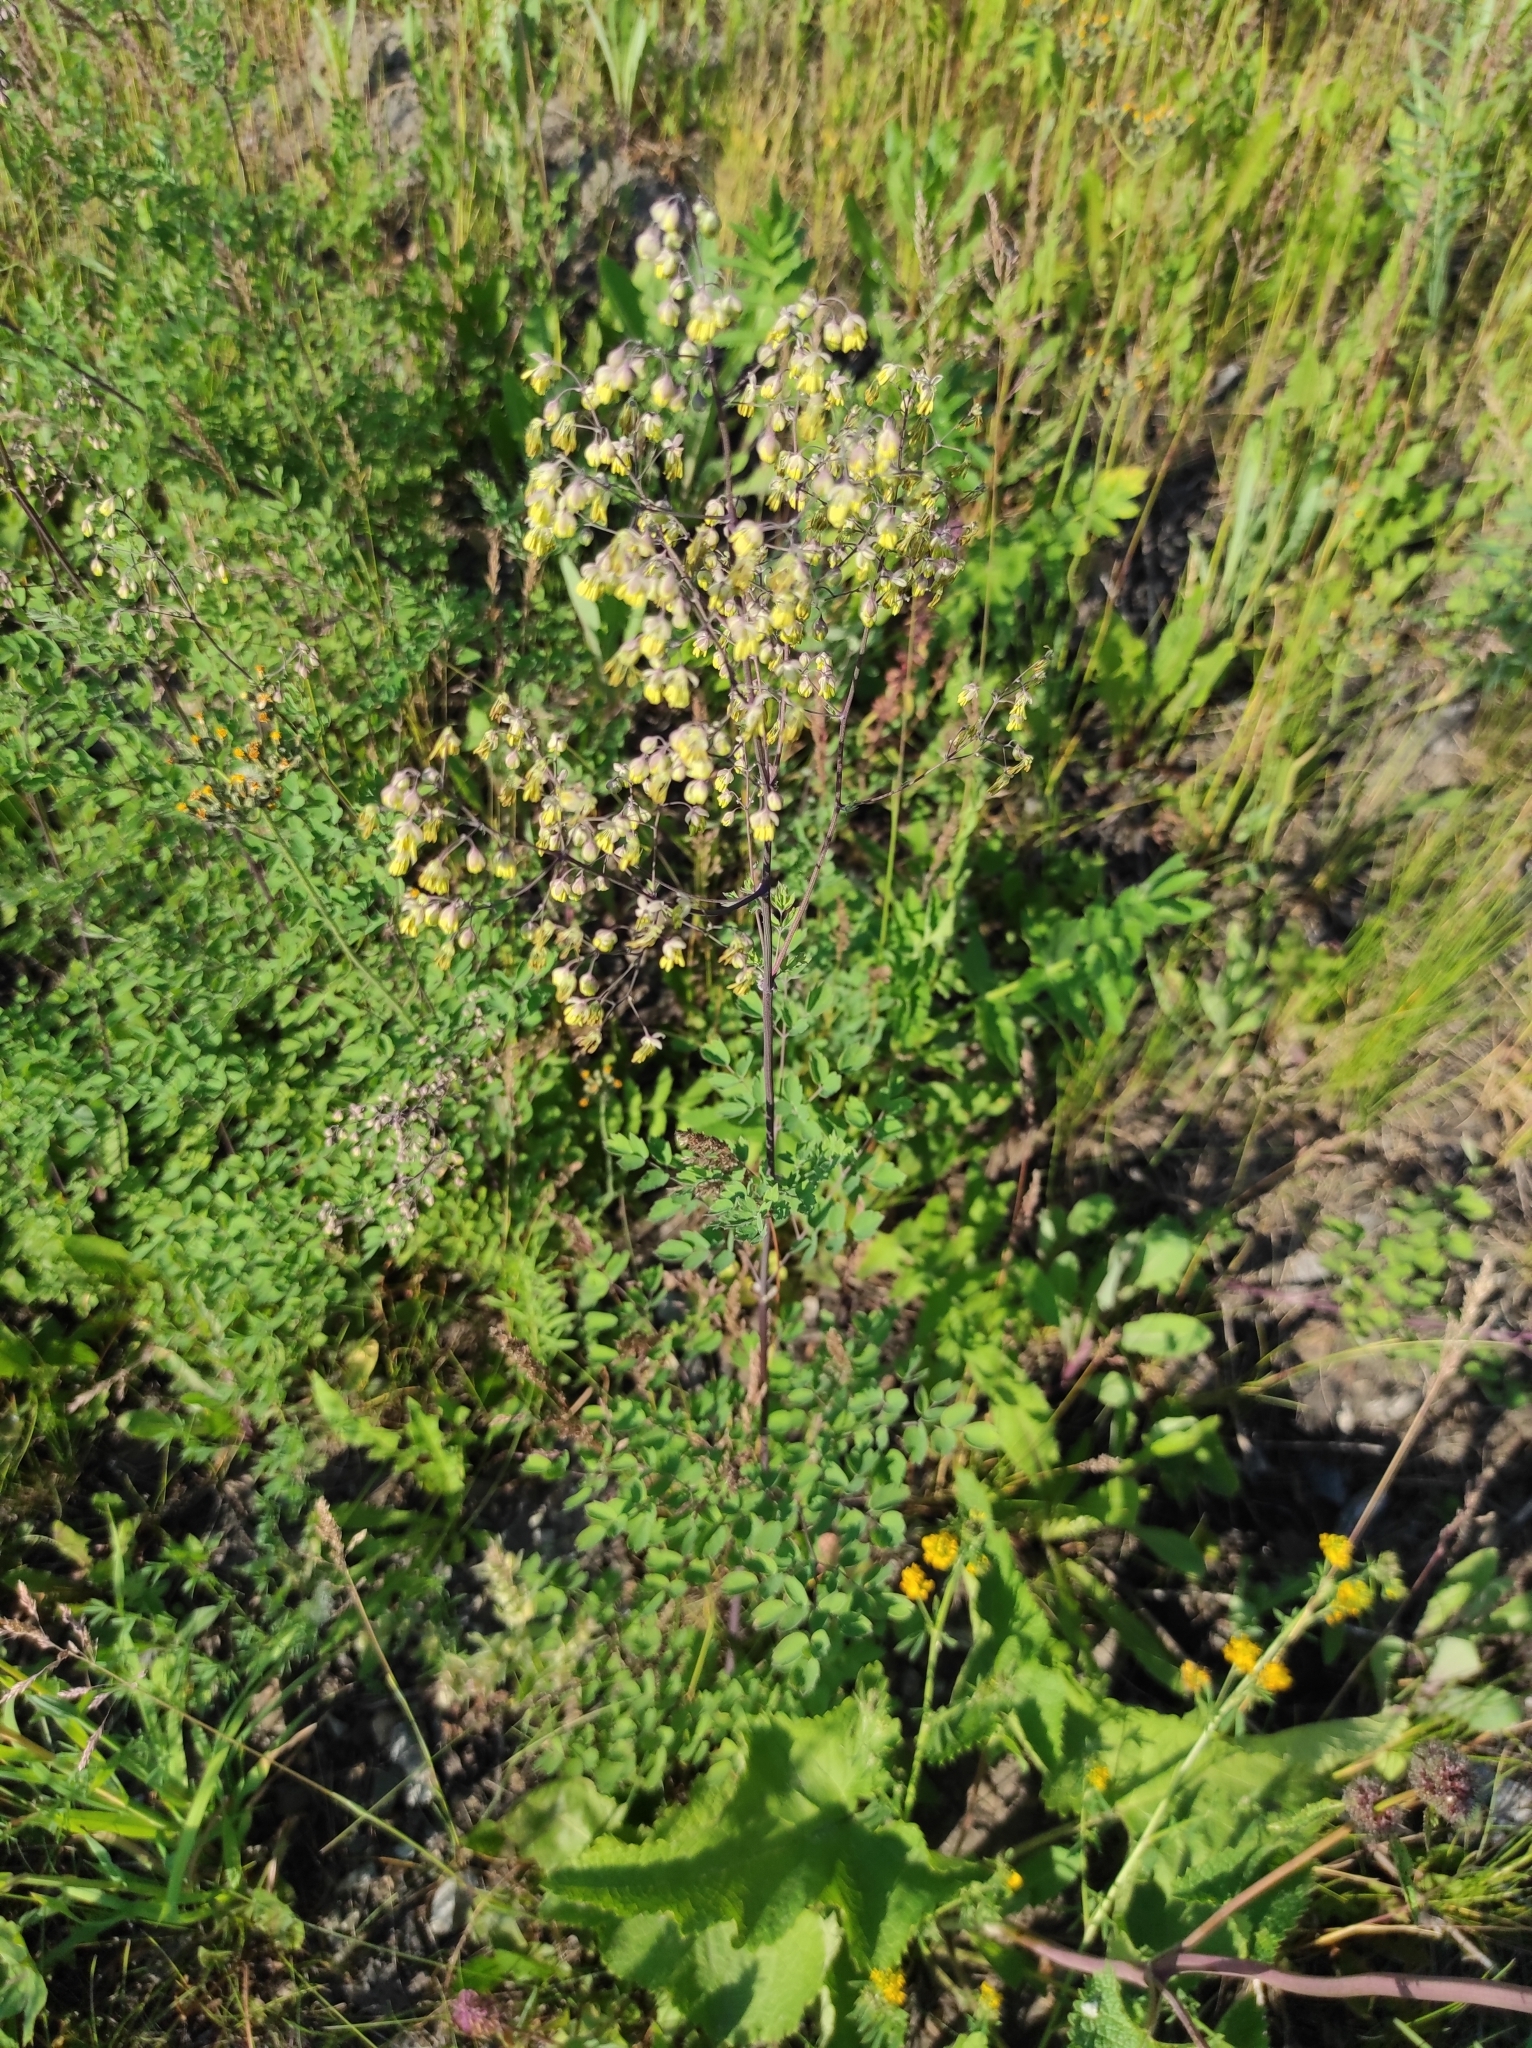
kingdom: Plantae
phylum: Tracheophyta
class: Magnoliopsida
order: Ranunculales
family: Ranunculaceae
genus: Thalictrum
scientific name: Thalictrum minus
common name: Lesser meadow-rue
